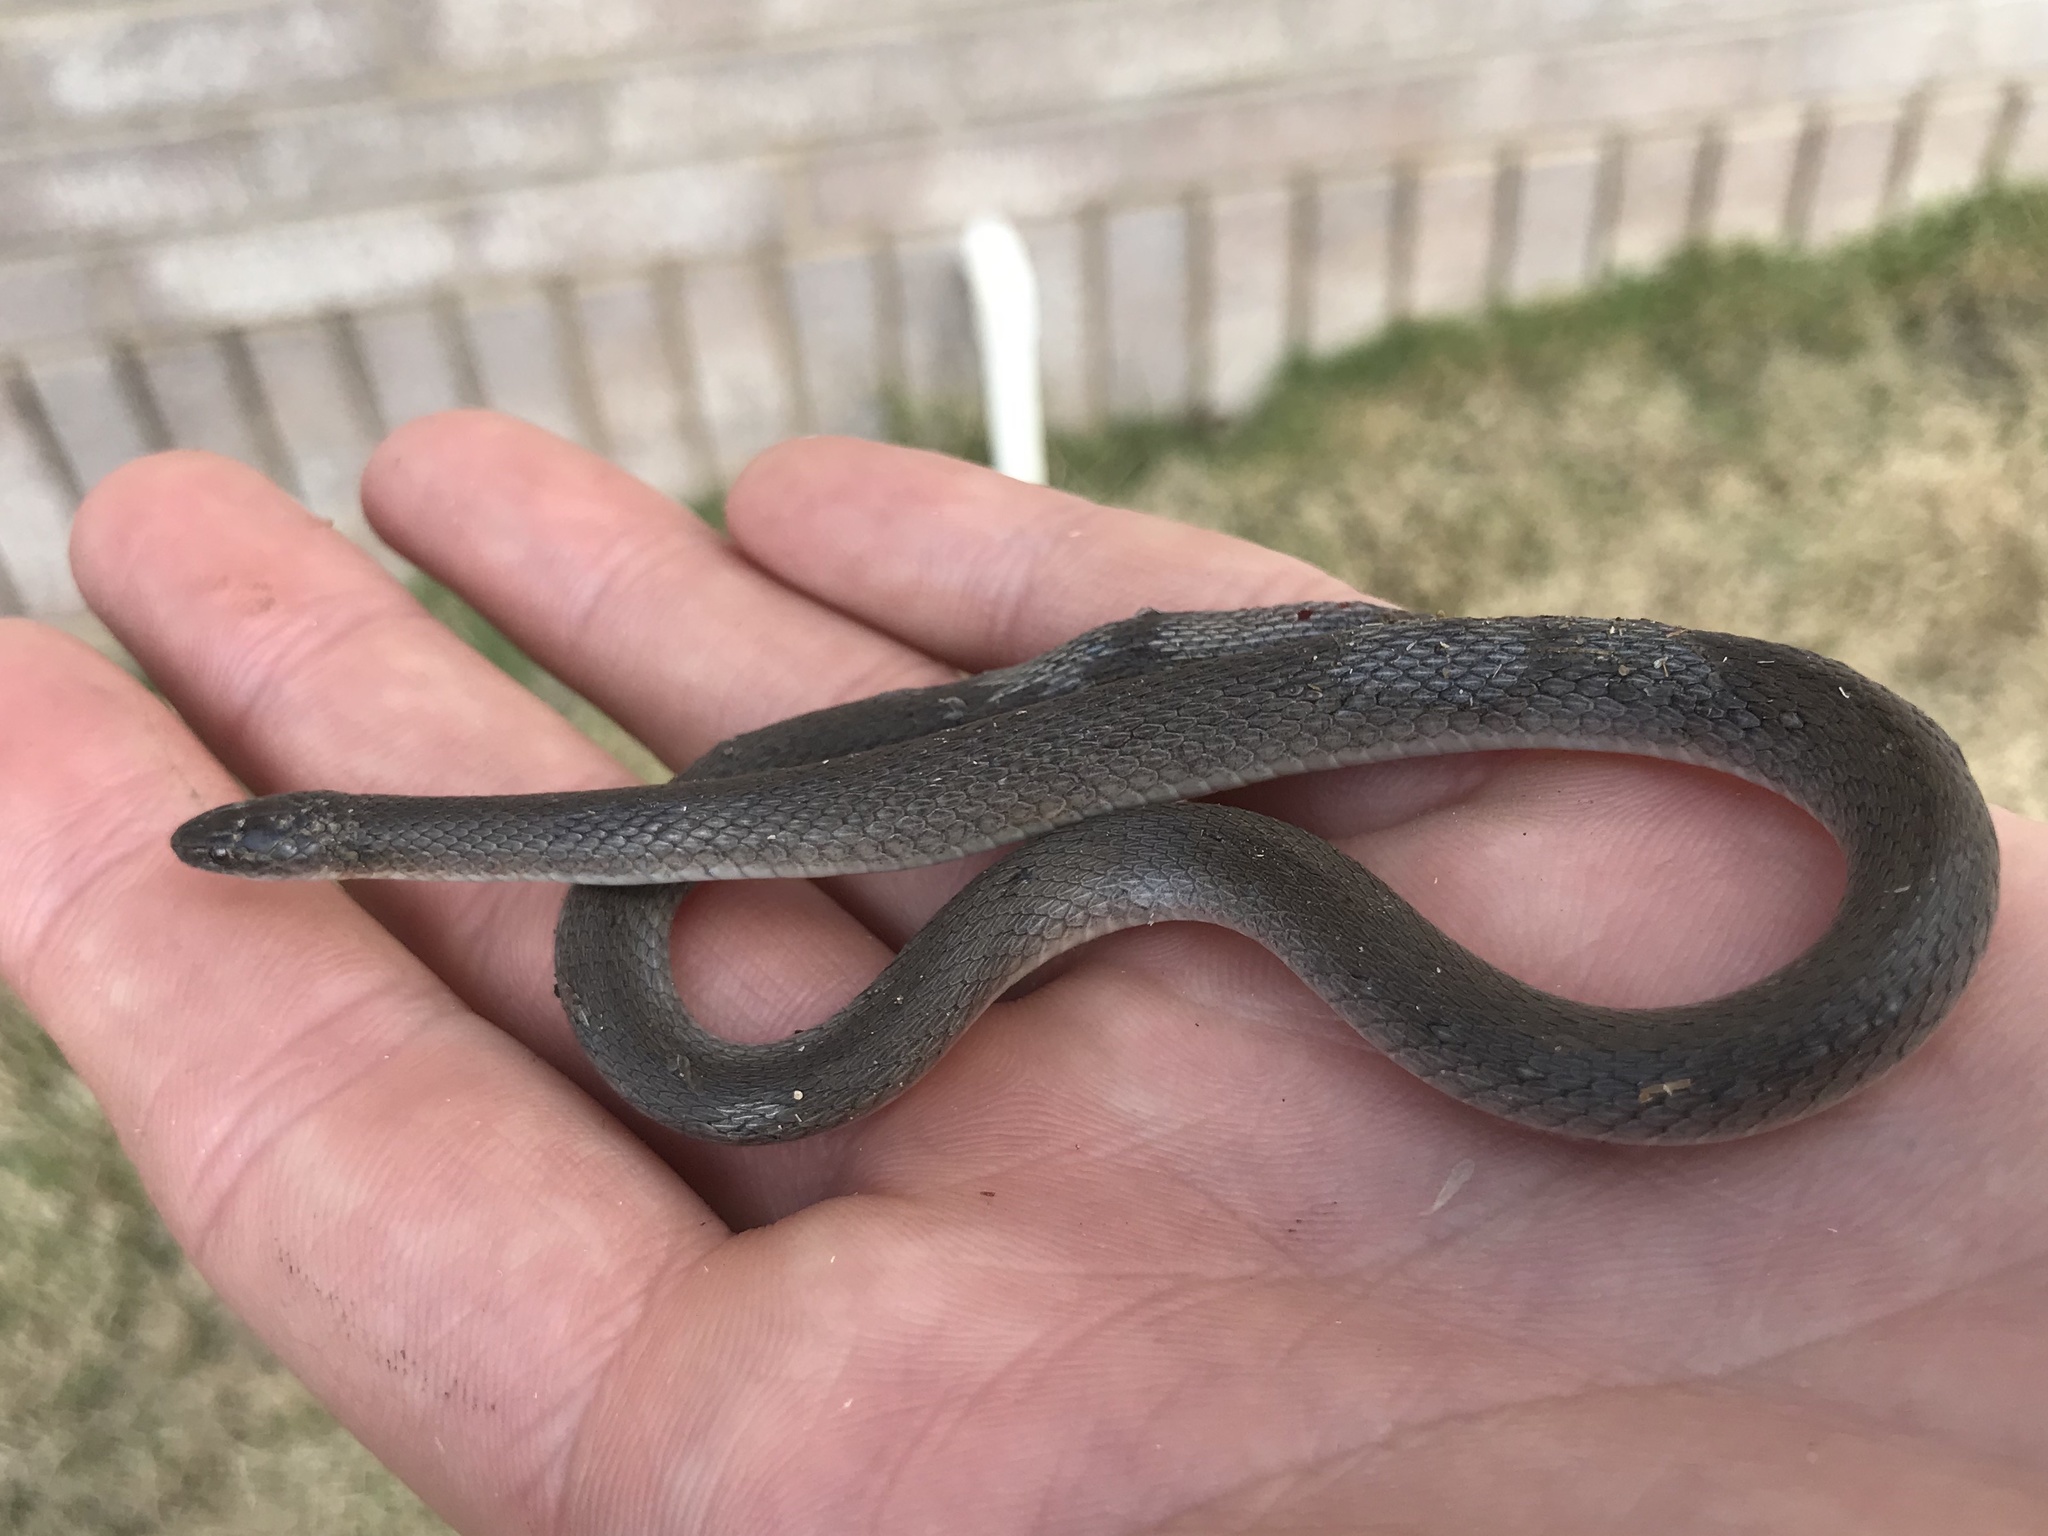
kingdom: Animalia
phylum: Chordata
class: Squamata
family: Colubridae
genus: Haldea
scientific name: Haldea striatula
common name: Rough earth snake
